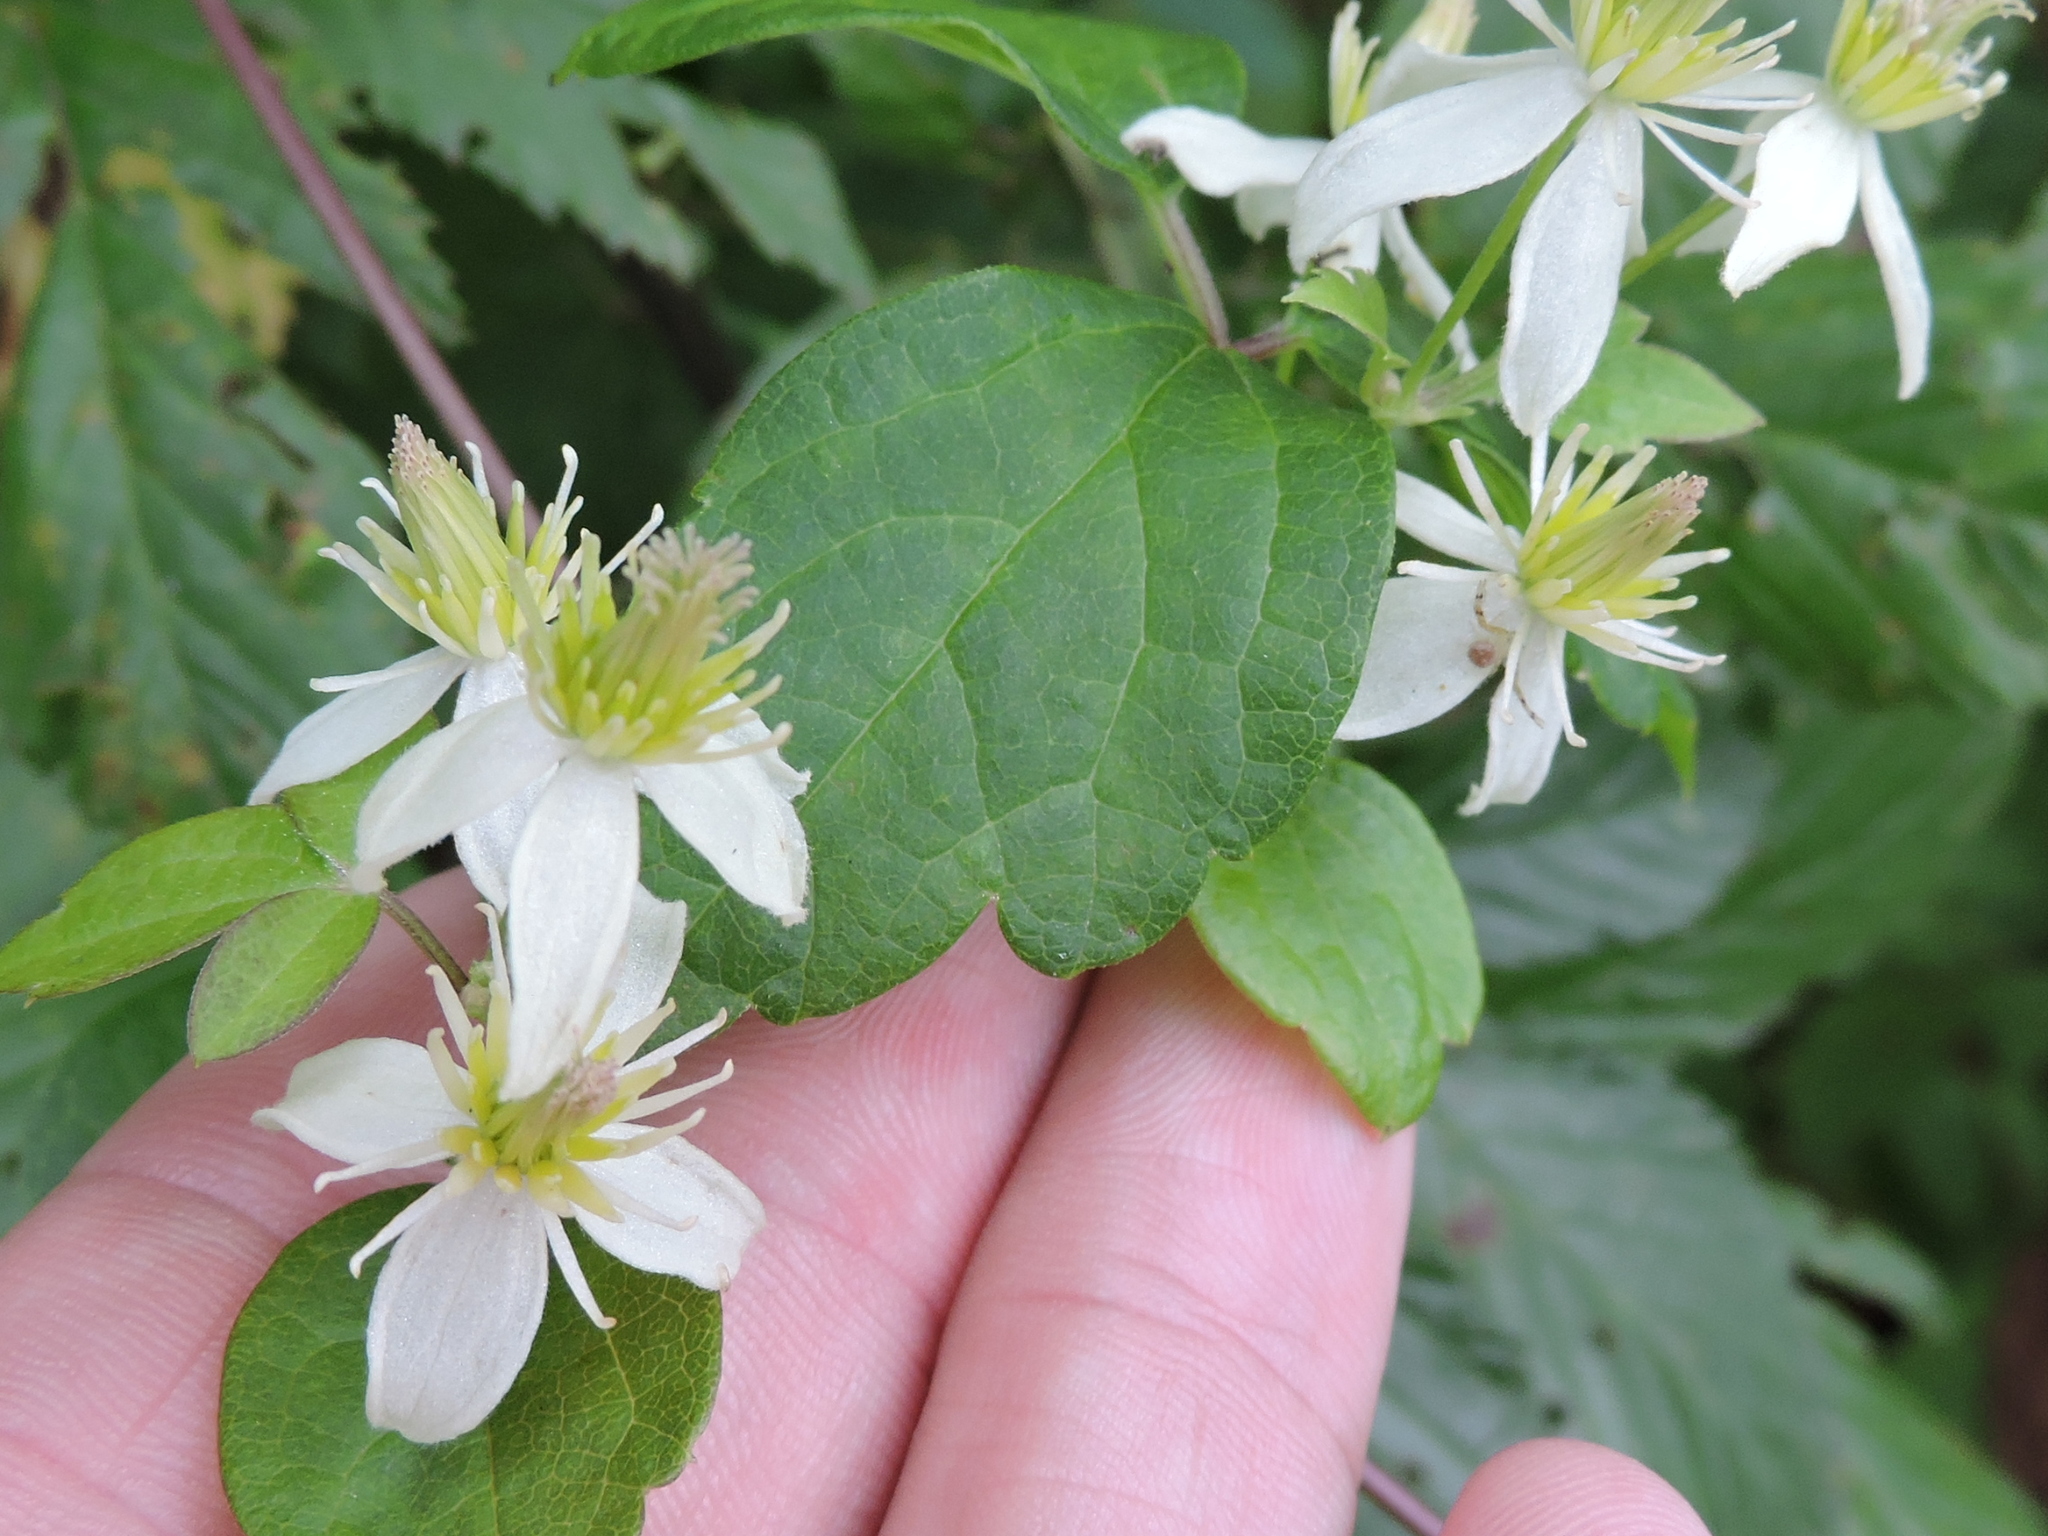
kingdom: Plantae
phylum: Tracheophyta
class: Magnoliopsida
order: Ranunculales
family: Ranunculaceae
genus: Clematis
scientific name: Clematis virginiana
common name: Virgin's-bower
